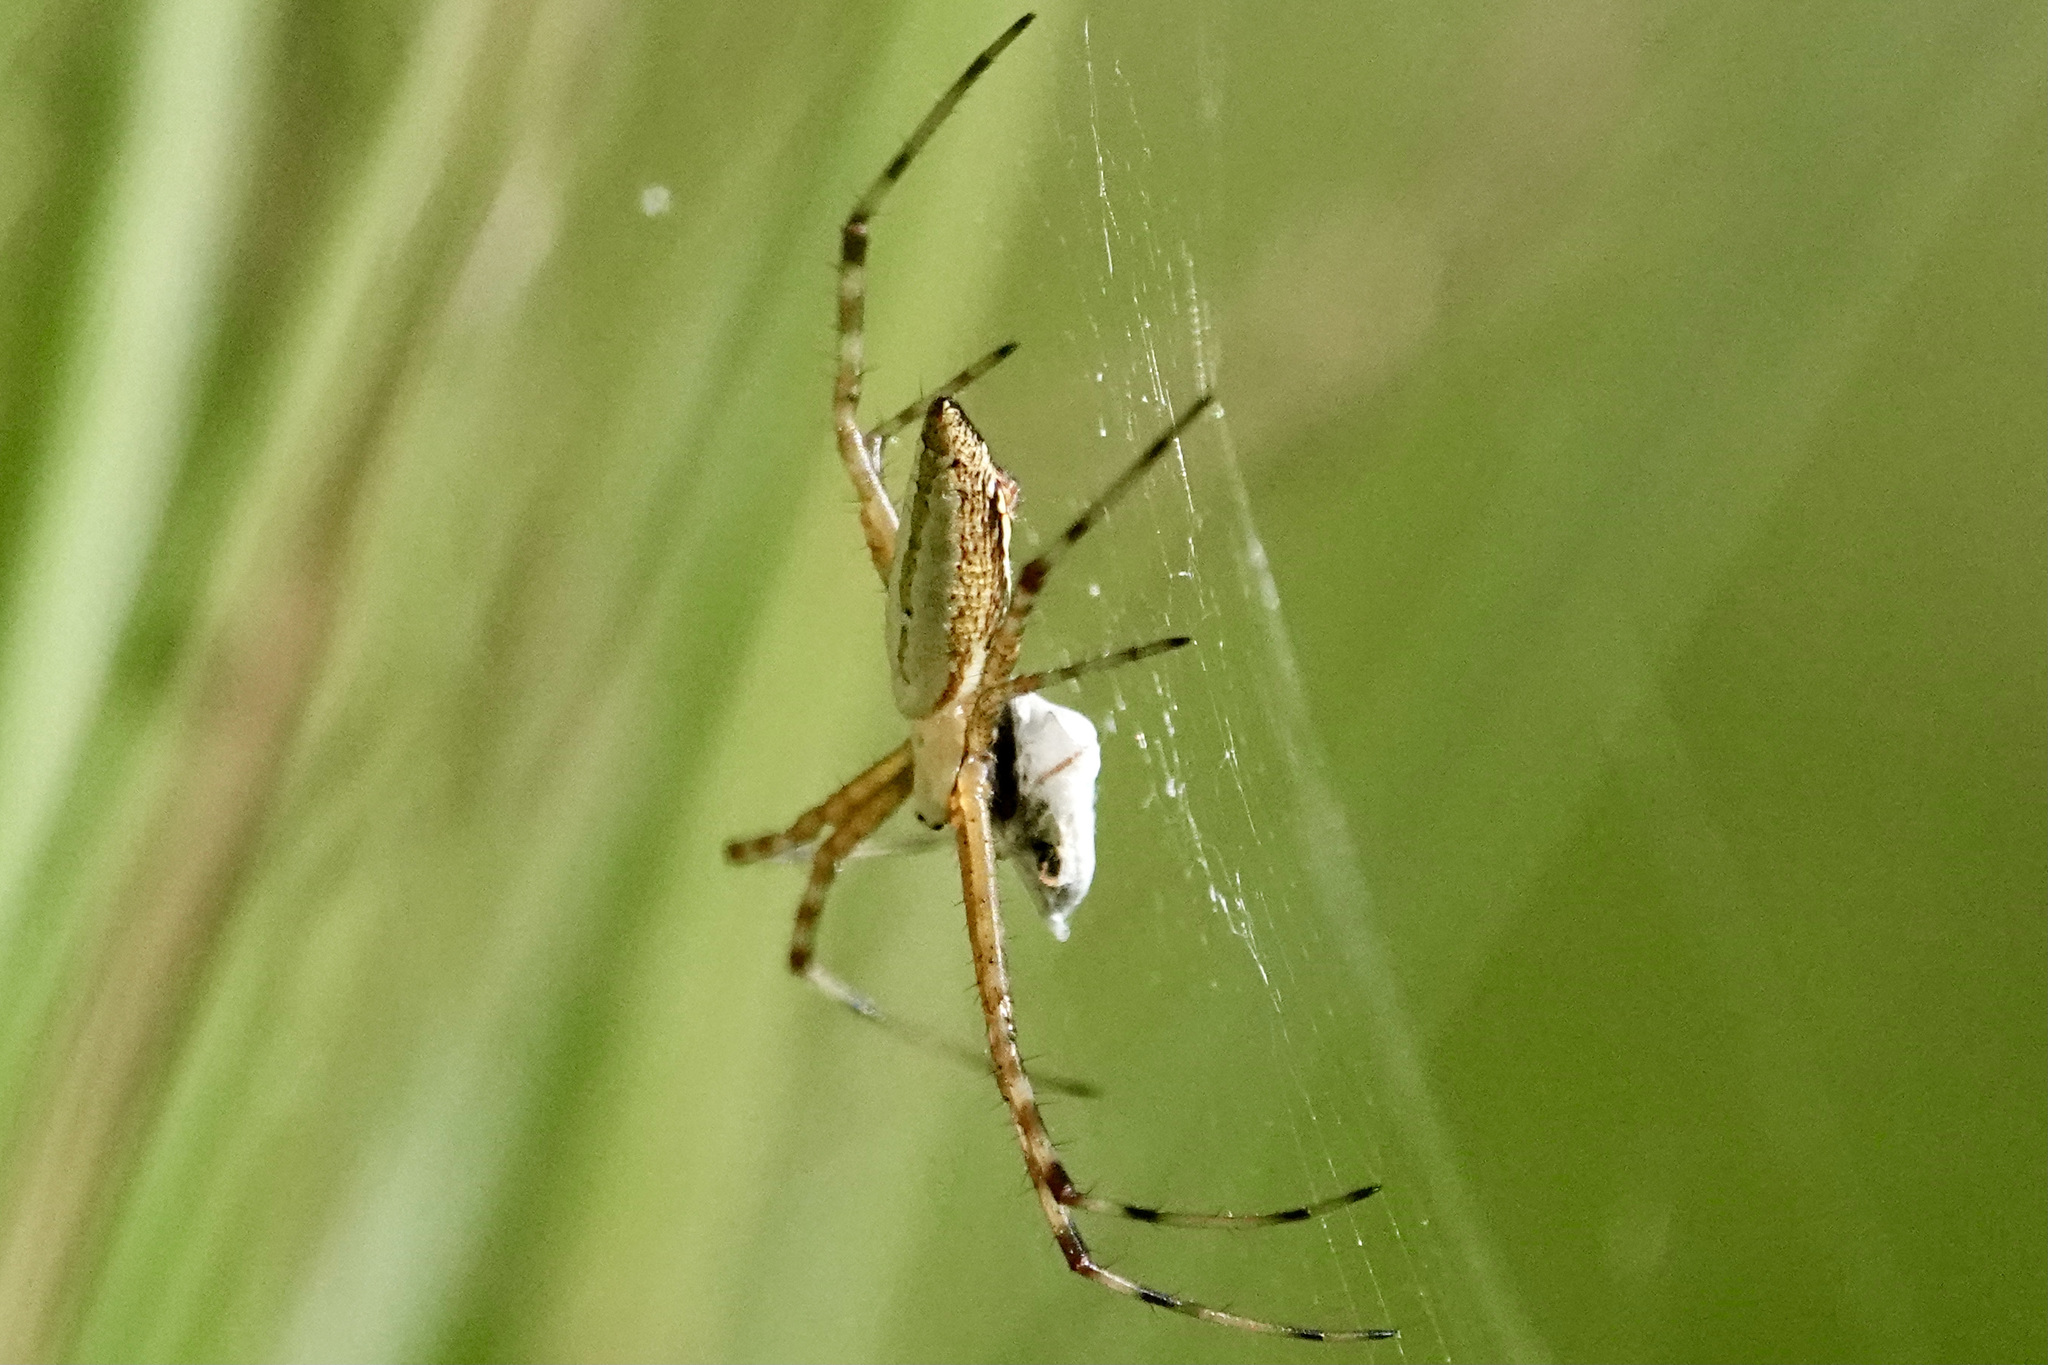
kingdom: Animalia
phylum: Arthropoda
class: Arachnida
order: Araneae
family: Araneidae
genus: Argiope
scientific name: Argiope trifasciata
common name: Banded garden spider
